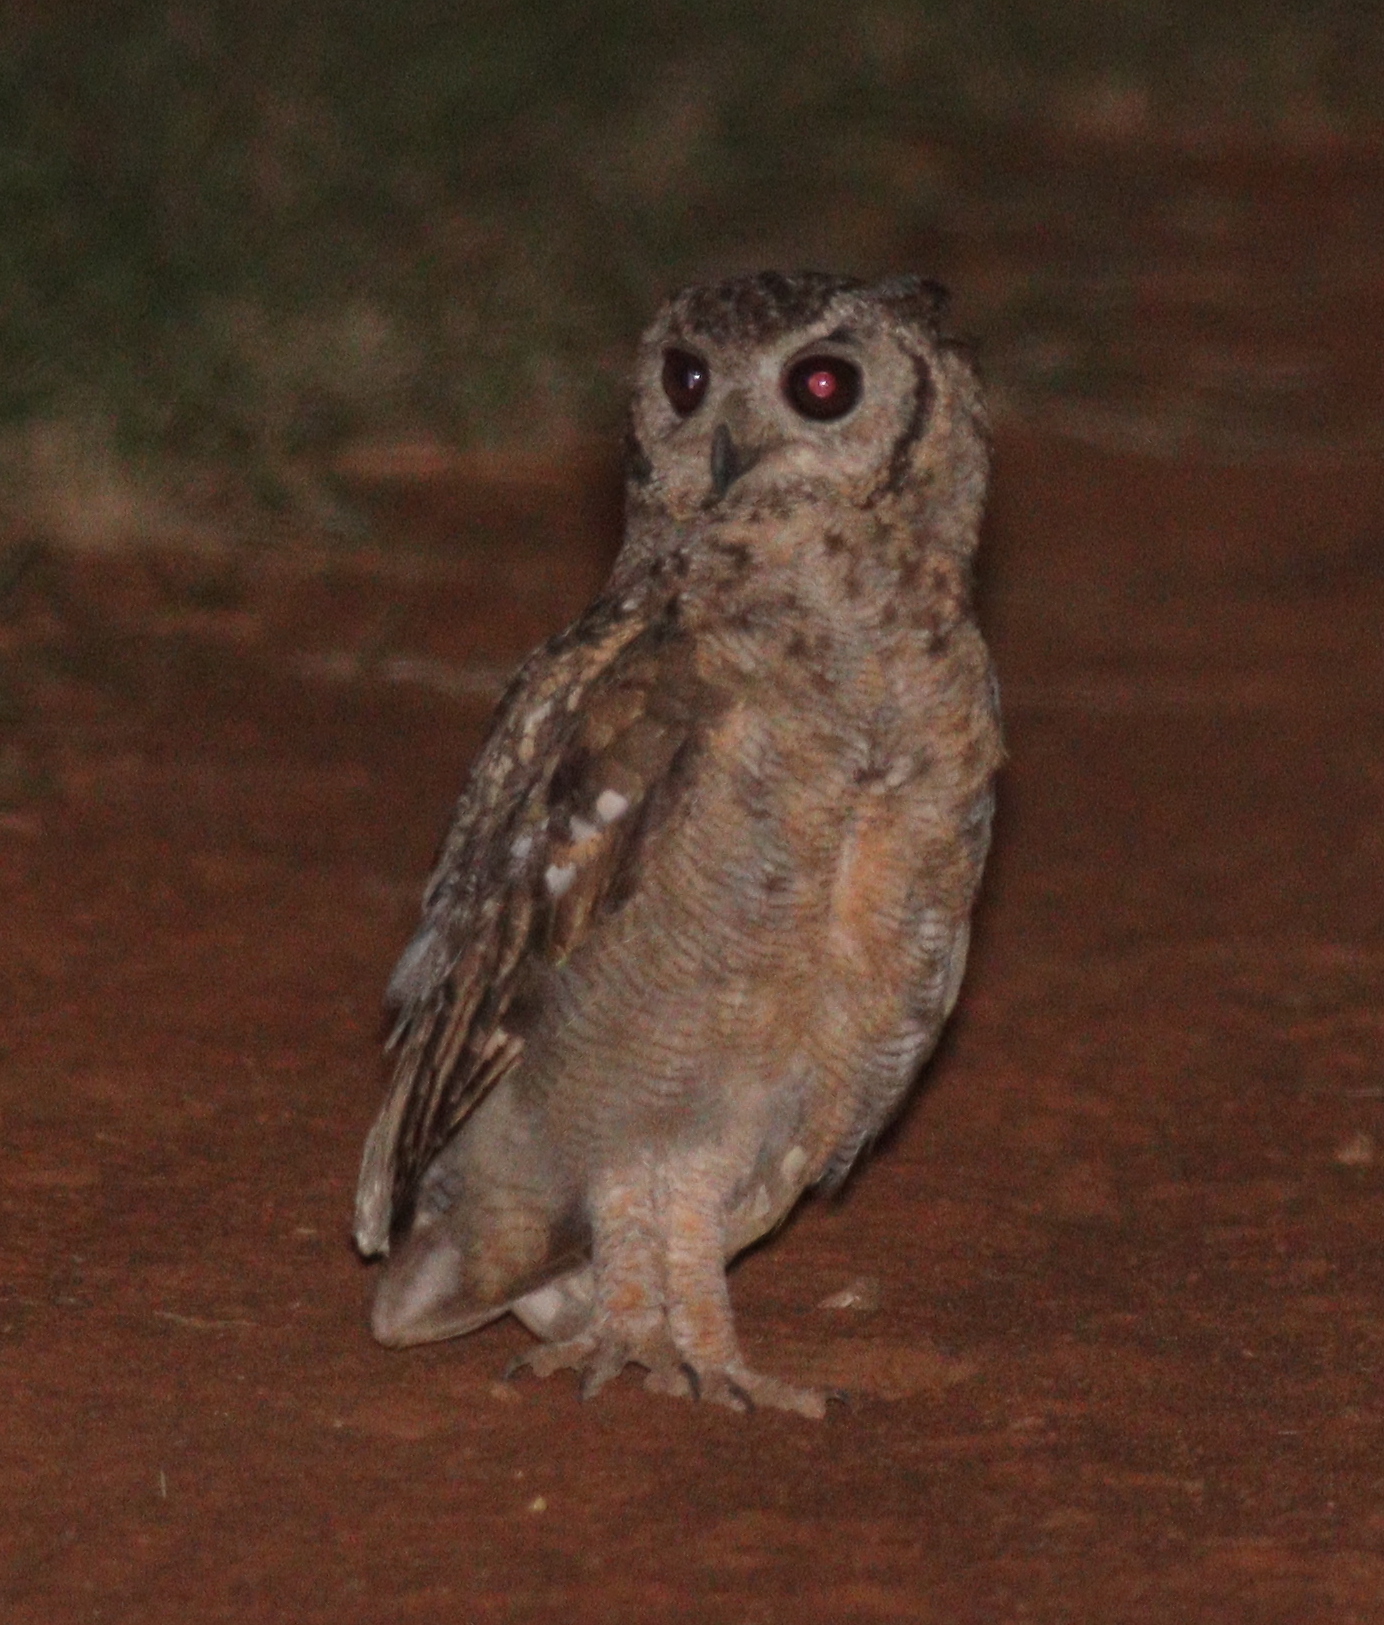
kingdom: Animalia
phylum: Chordata
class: Aves
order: Strigiformes
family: Strigidae
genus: Bubo
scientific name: Bubo cinerascens
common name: Greyish eagle-owl
